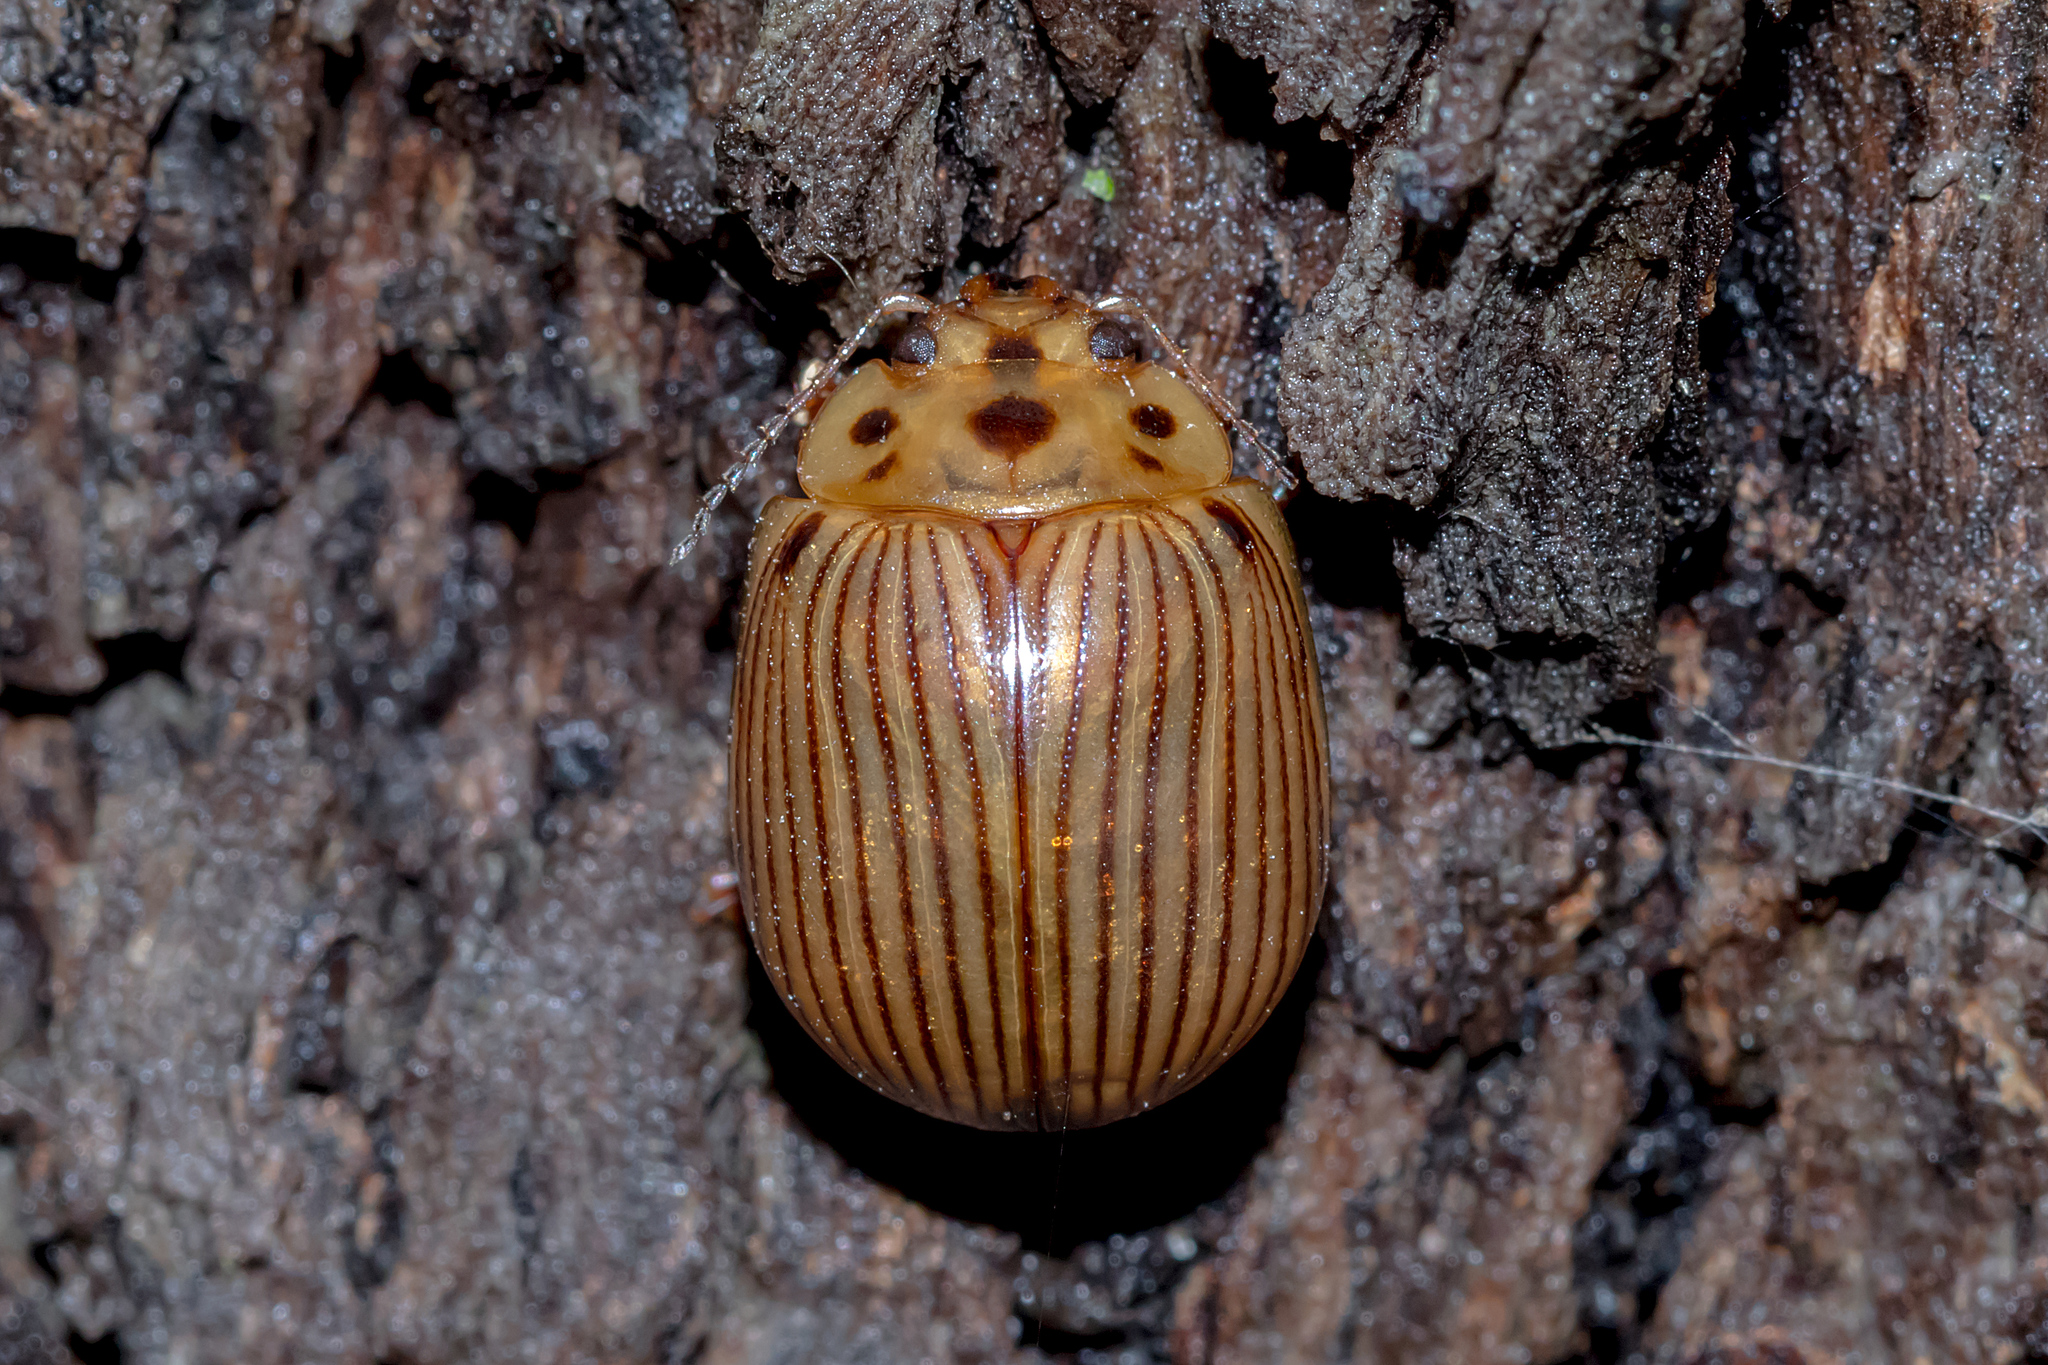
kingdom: Animalia
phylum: Arthropoda
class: Insecta
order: Coleoptera
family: Chrysomelidae
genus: Paropsisterna
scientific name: Paropsisterna
